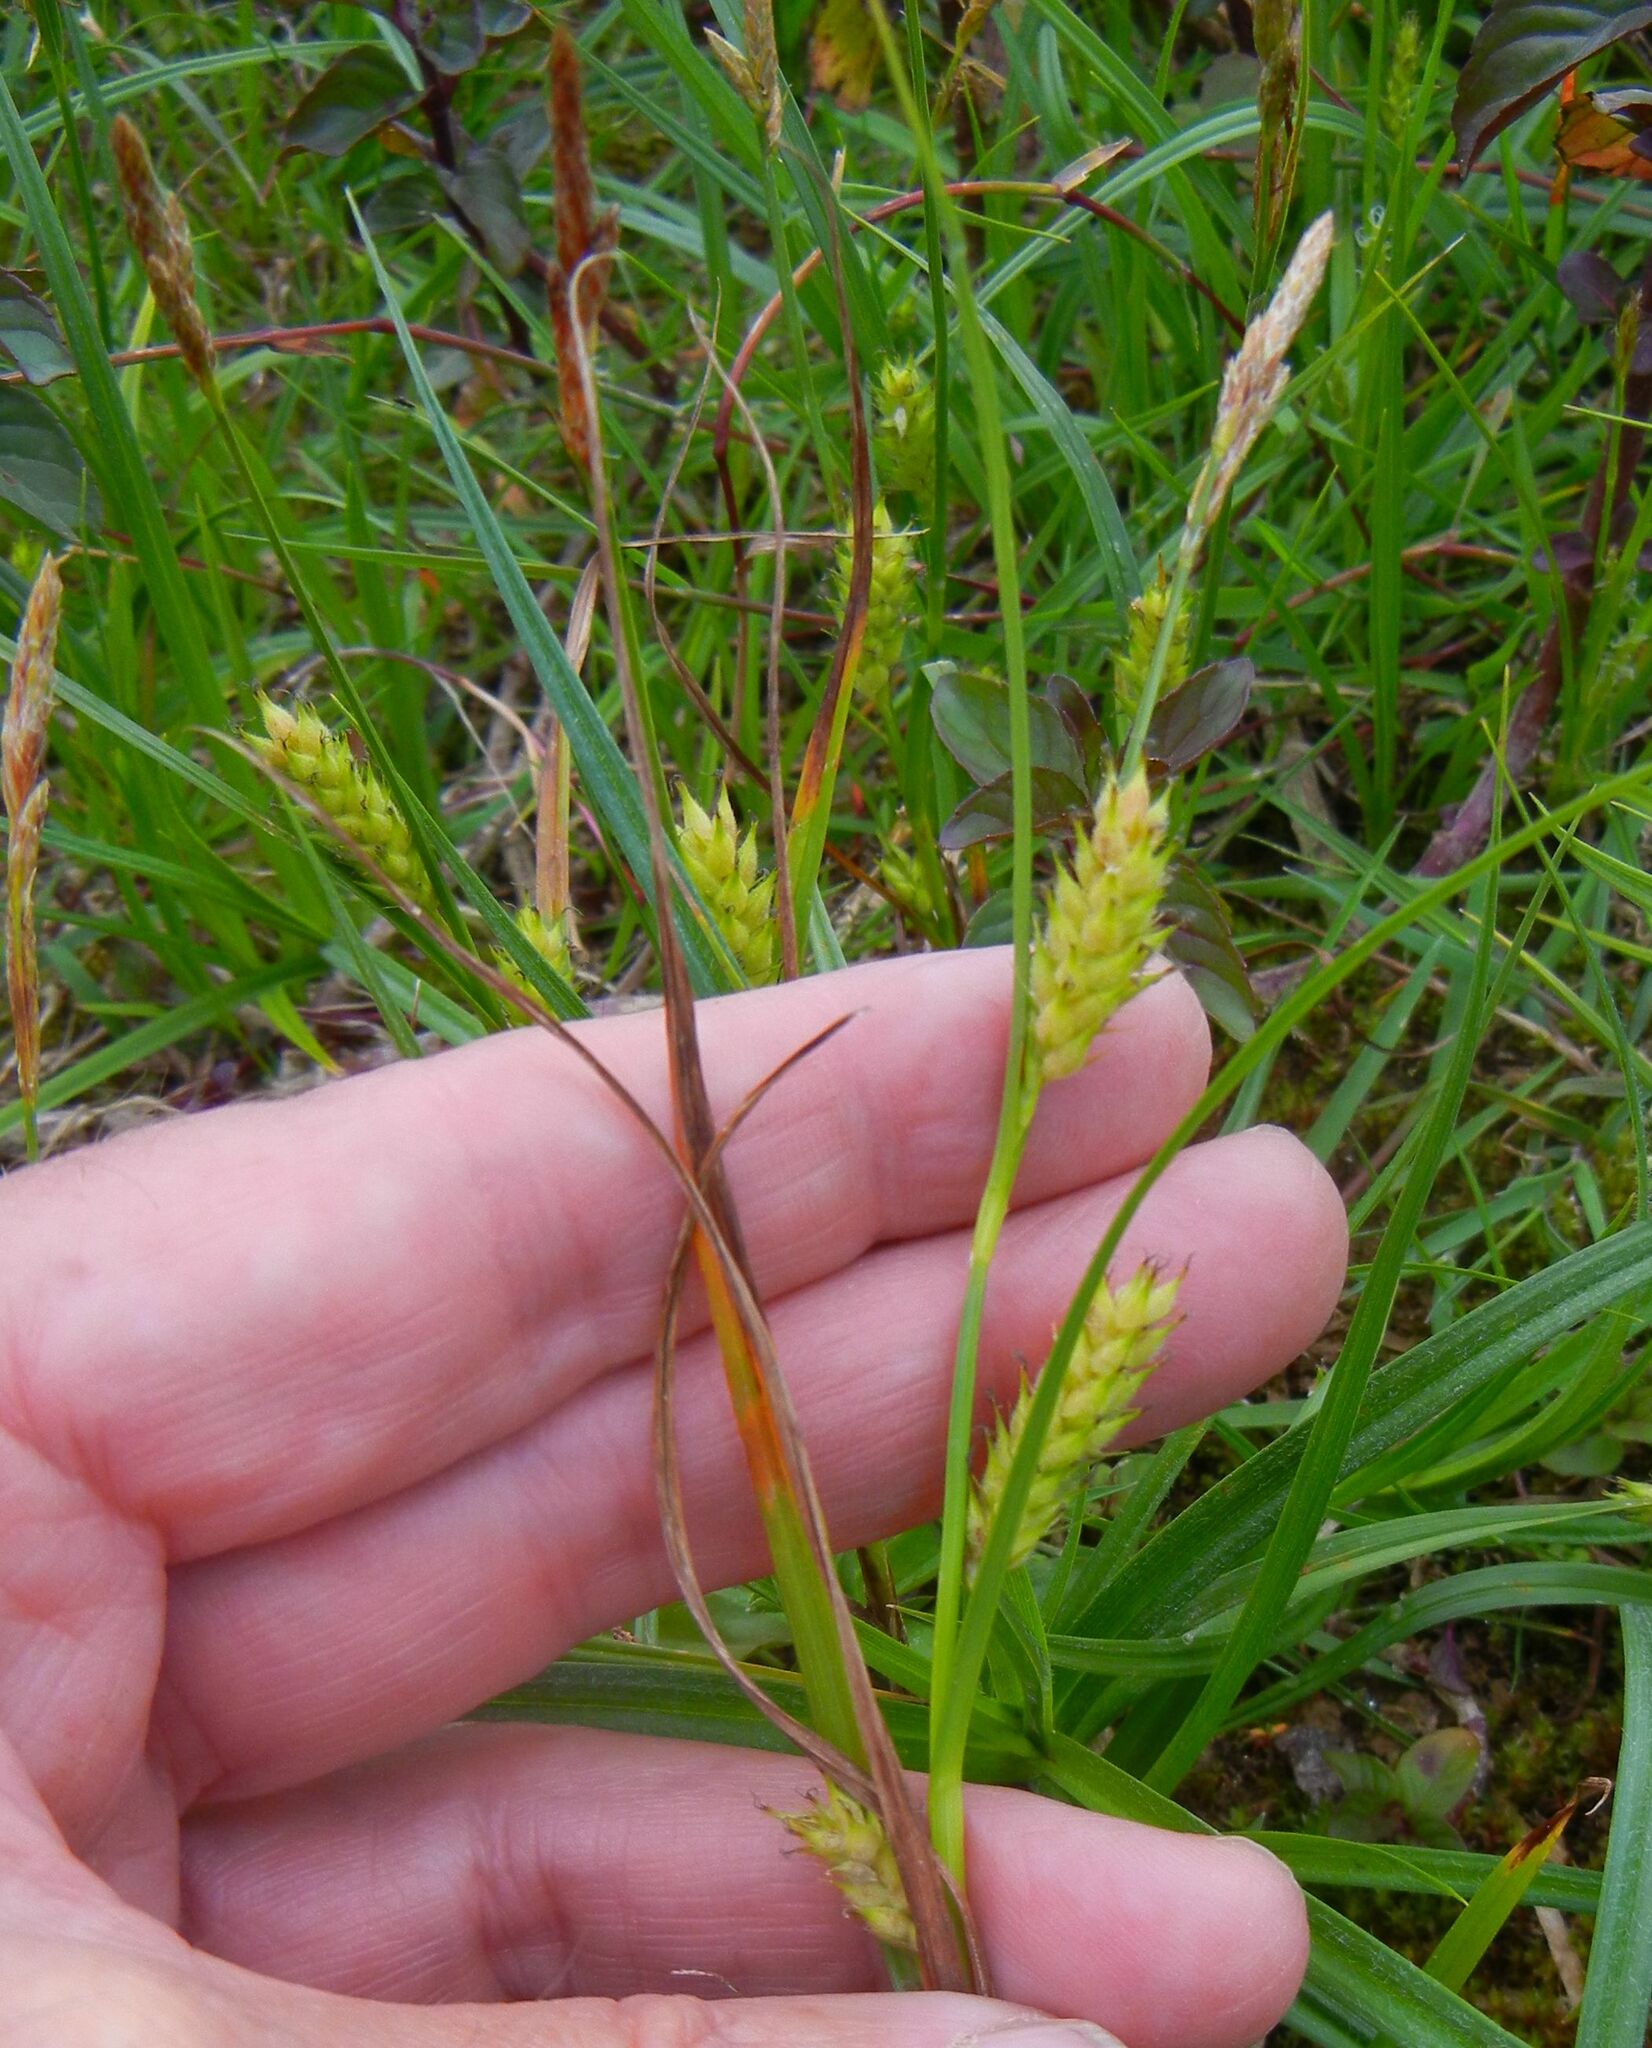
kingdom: Plantae
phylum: Tracheophyta
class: Liliopsida
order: Poales
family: Cyperaceae
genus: Carex
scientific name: Carex hirta
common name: Hairy sedge
